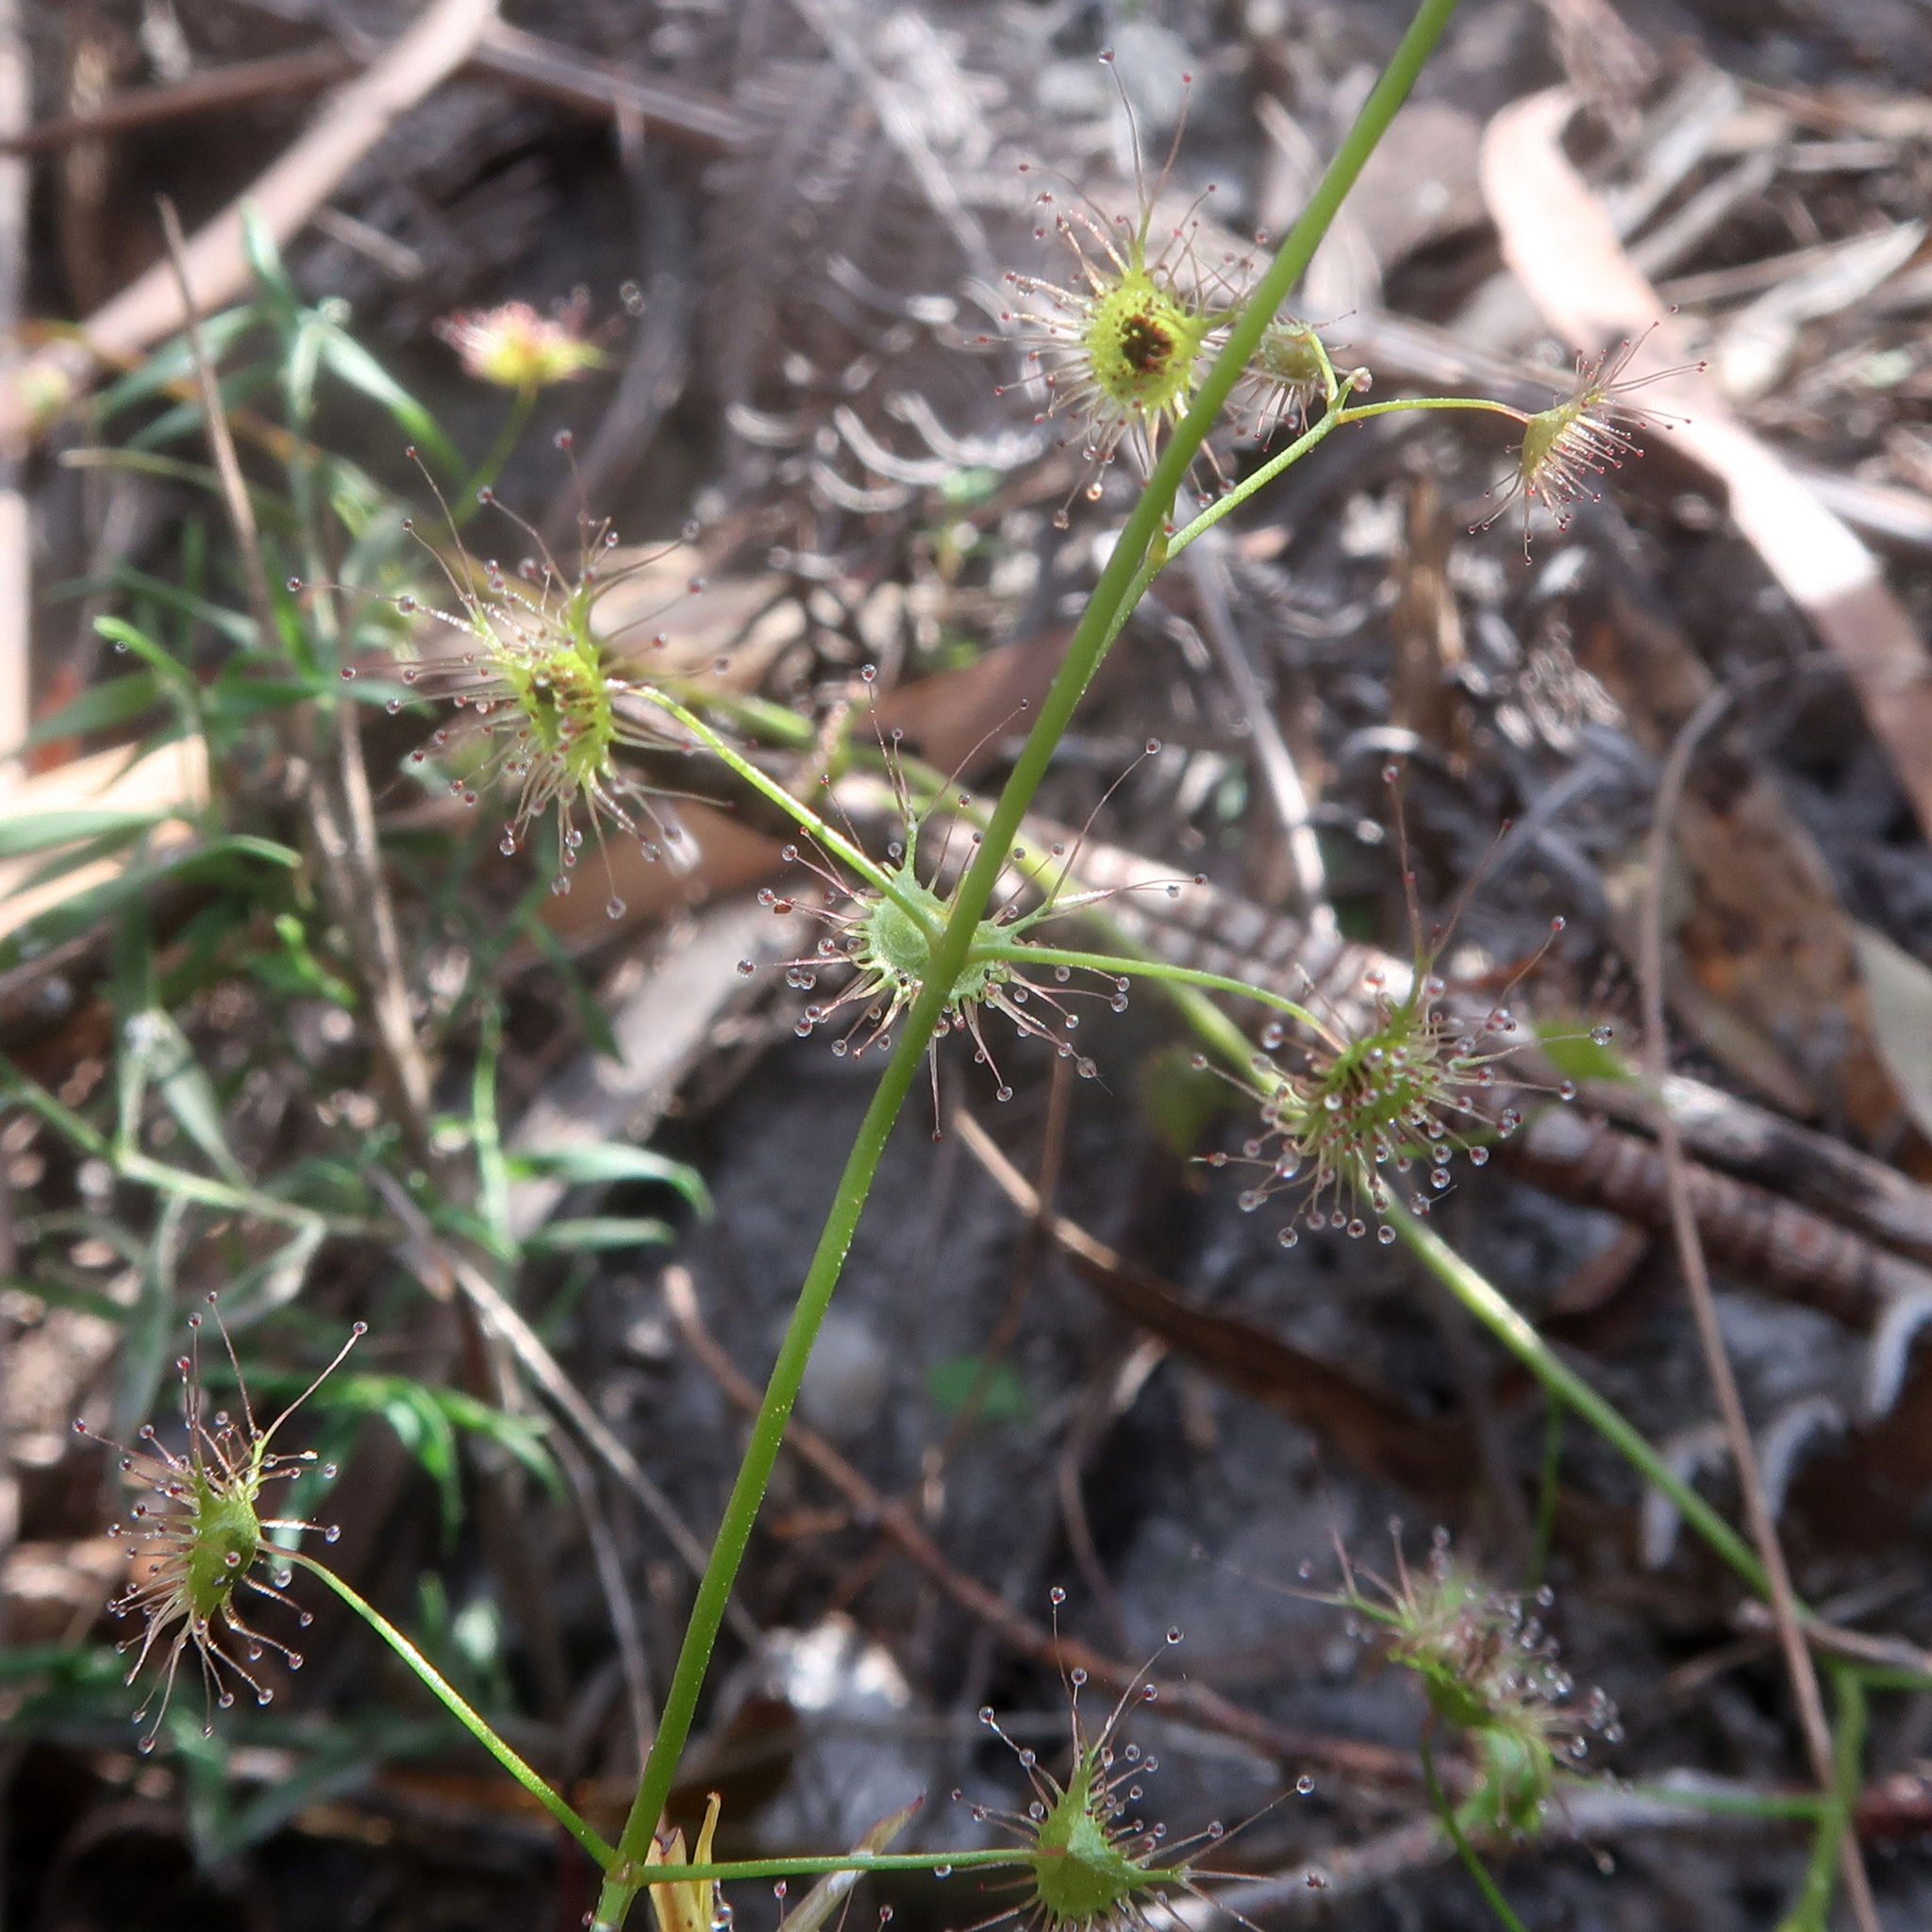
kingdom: Plantae
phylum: Tracheophyta
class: Magnoliopsida
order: Caryophyllales
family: Droseraceae
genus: Drosera
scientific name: Drosera peltata
